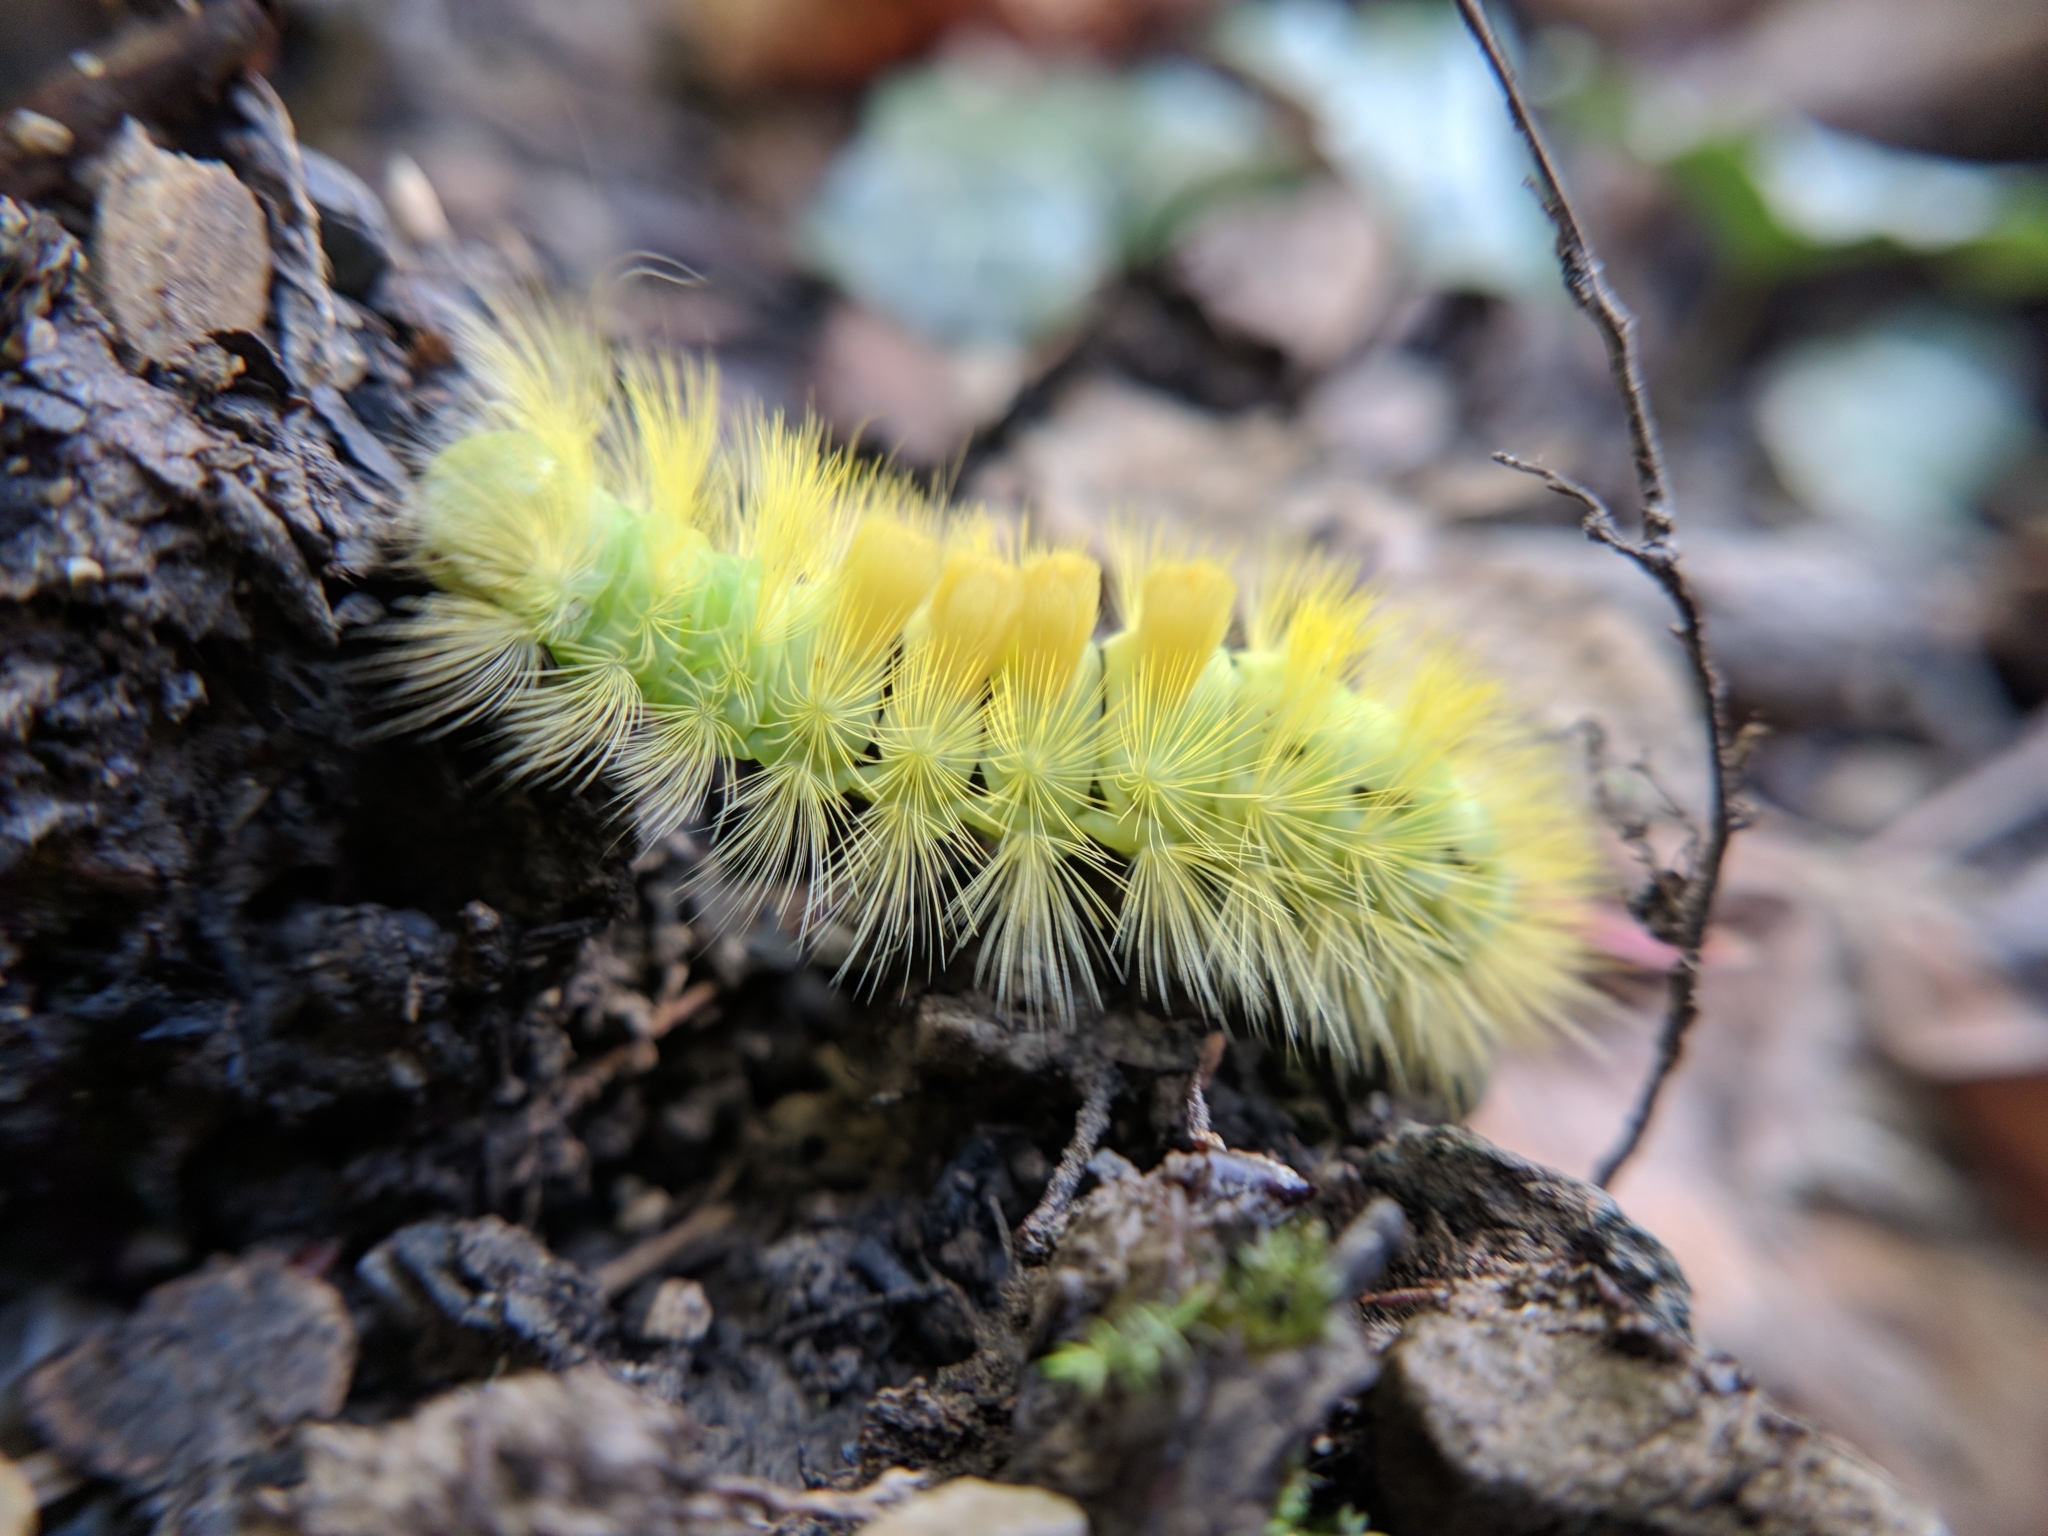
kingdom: Animalia
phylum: Arthropoda
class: Insecta
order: Lepidoptera
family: Erebidae
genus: Calliteara
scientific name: Calliteara pudibunda
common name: Pale tussock
